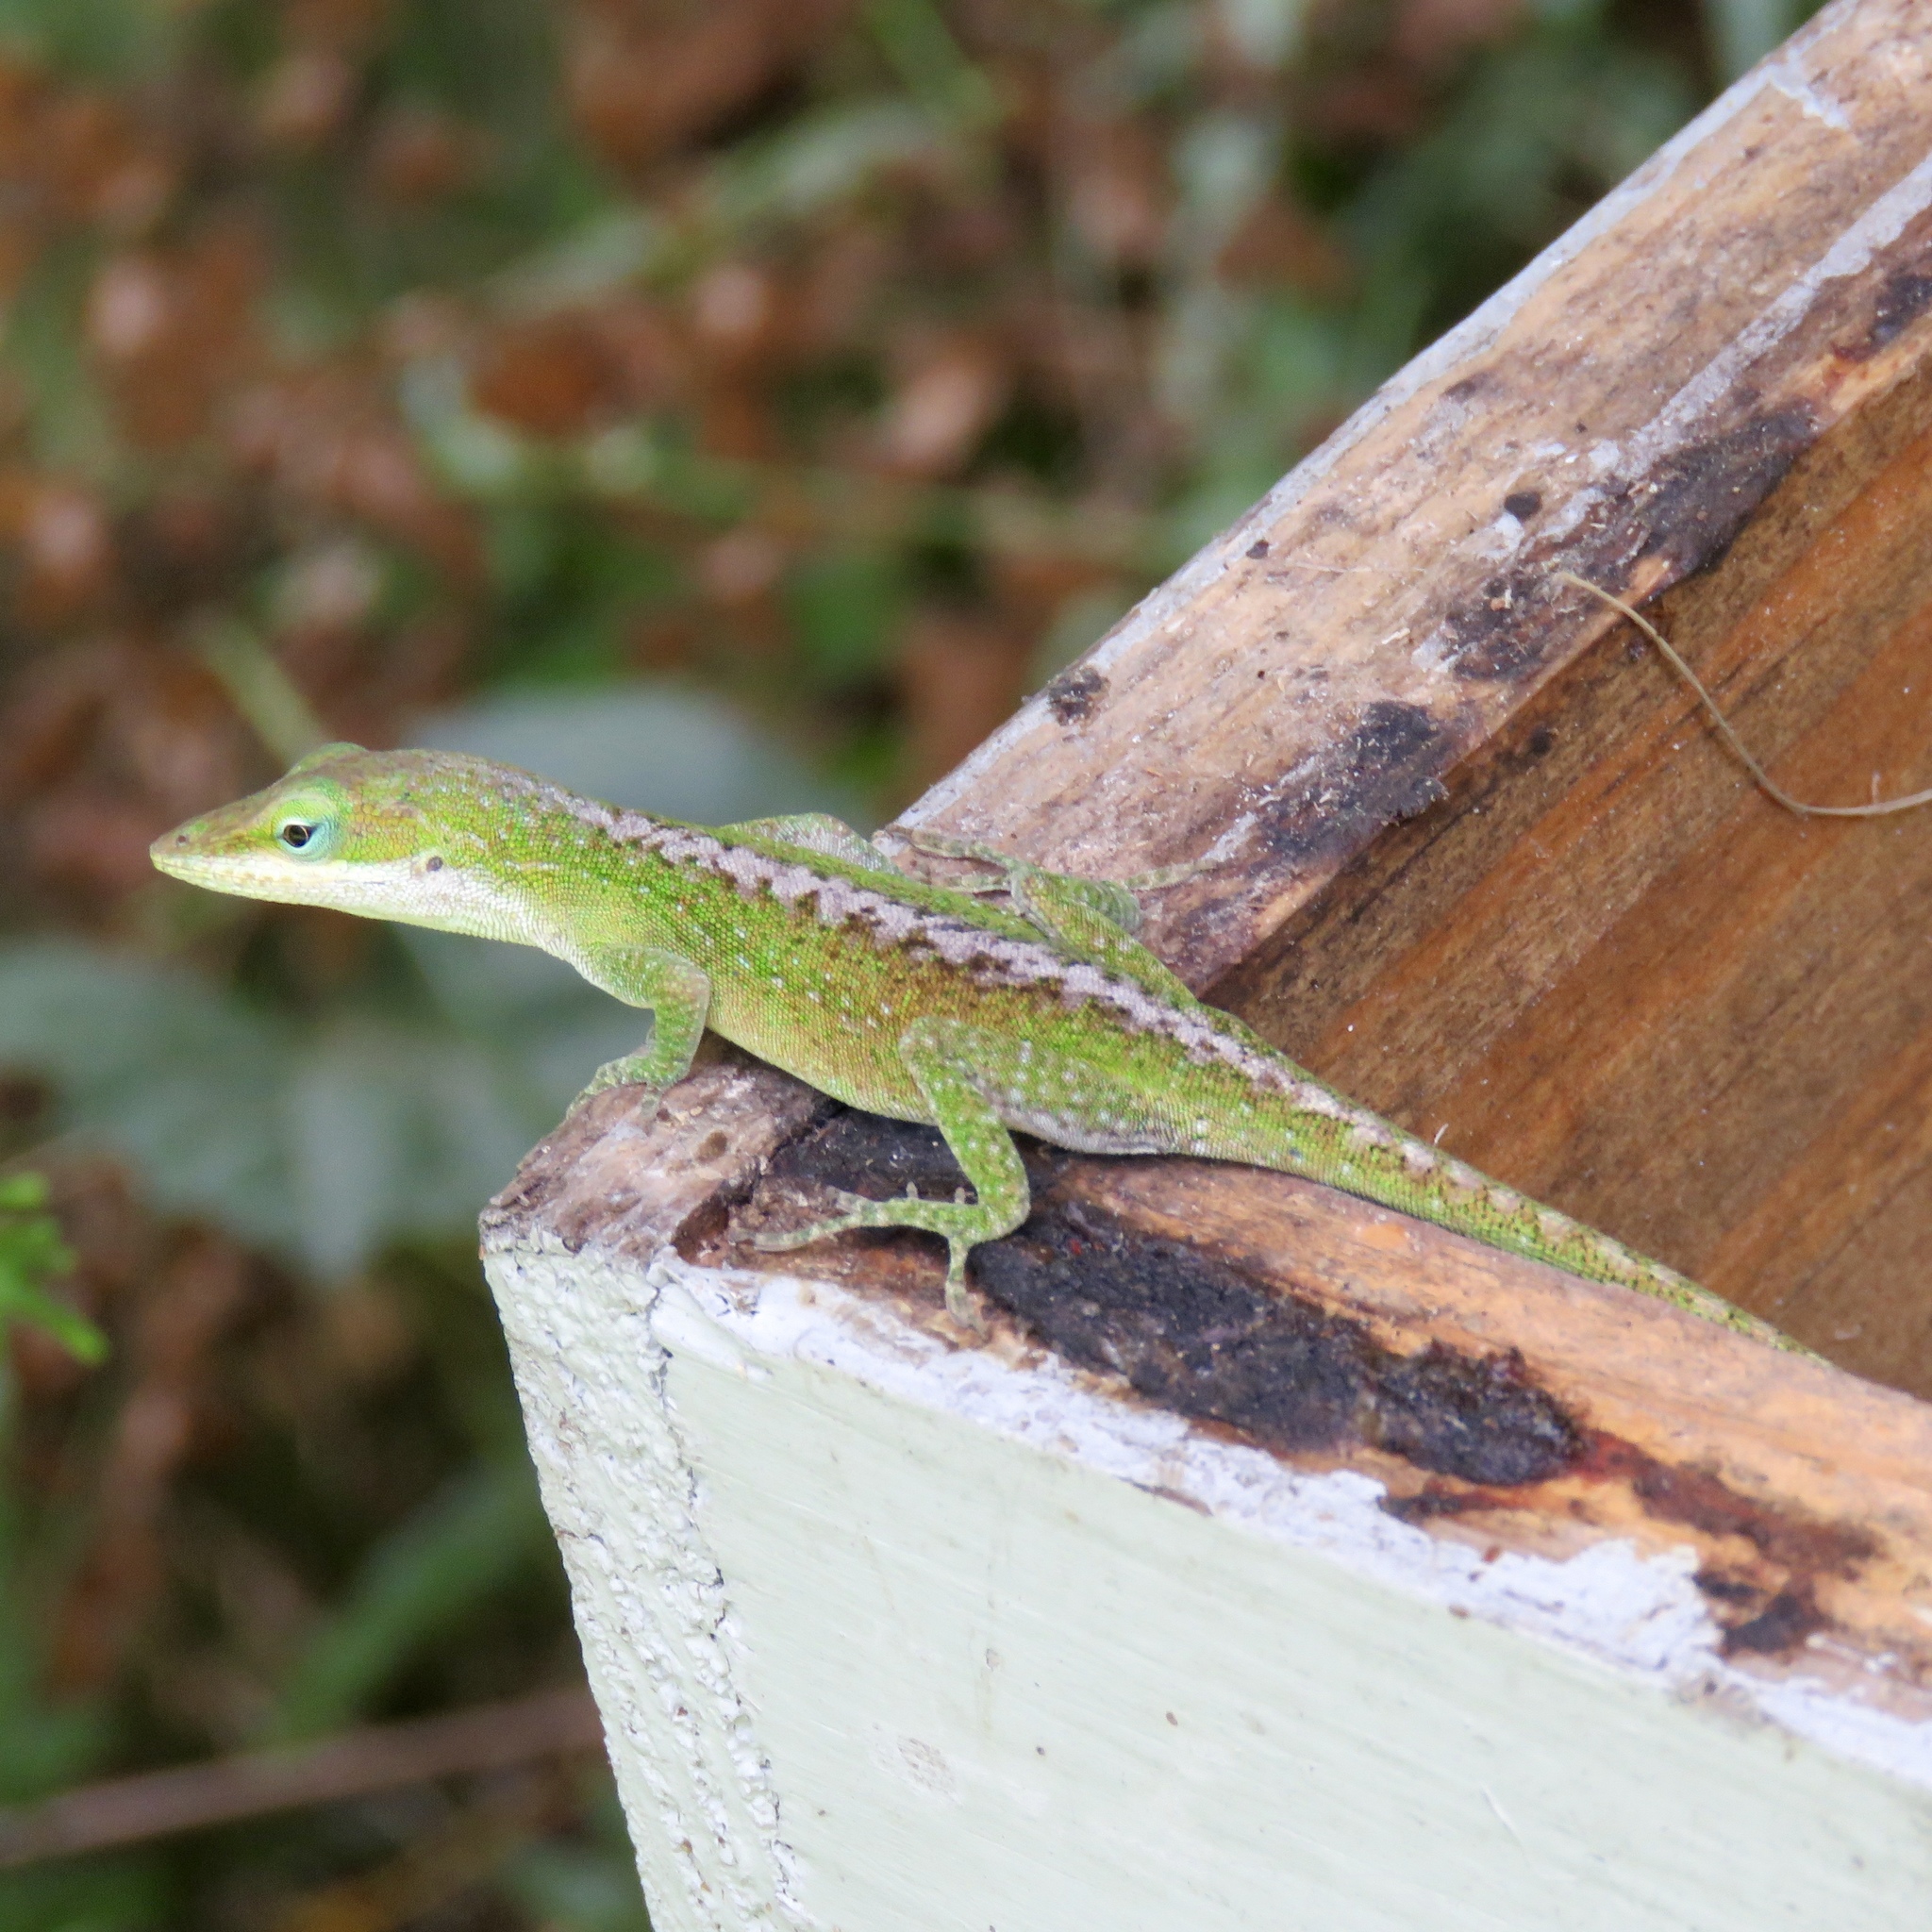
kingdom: Animalia
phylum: Chordata
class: Squamata
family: Dactyloidae
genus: Anolis
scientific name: Anolis carolinensis
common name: Green anole
